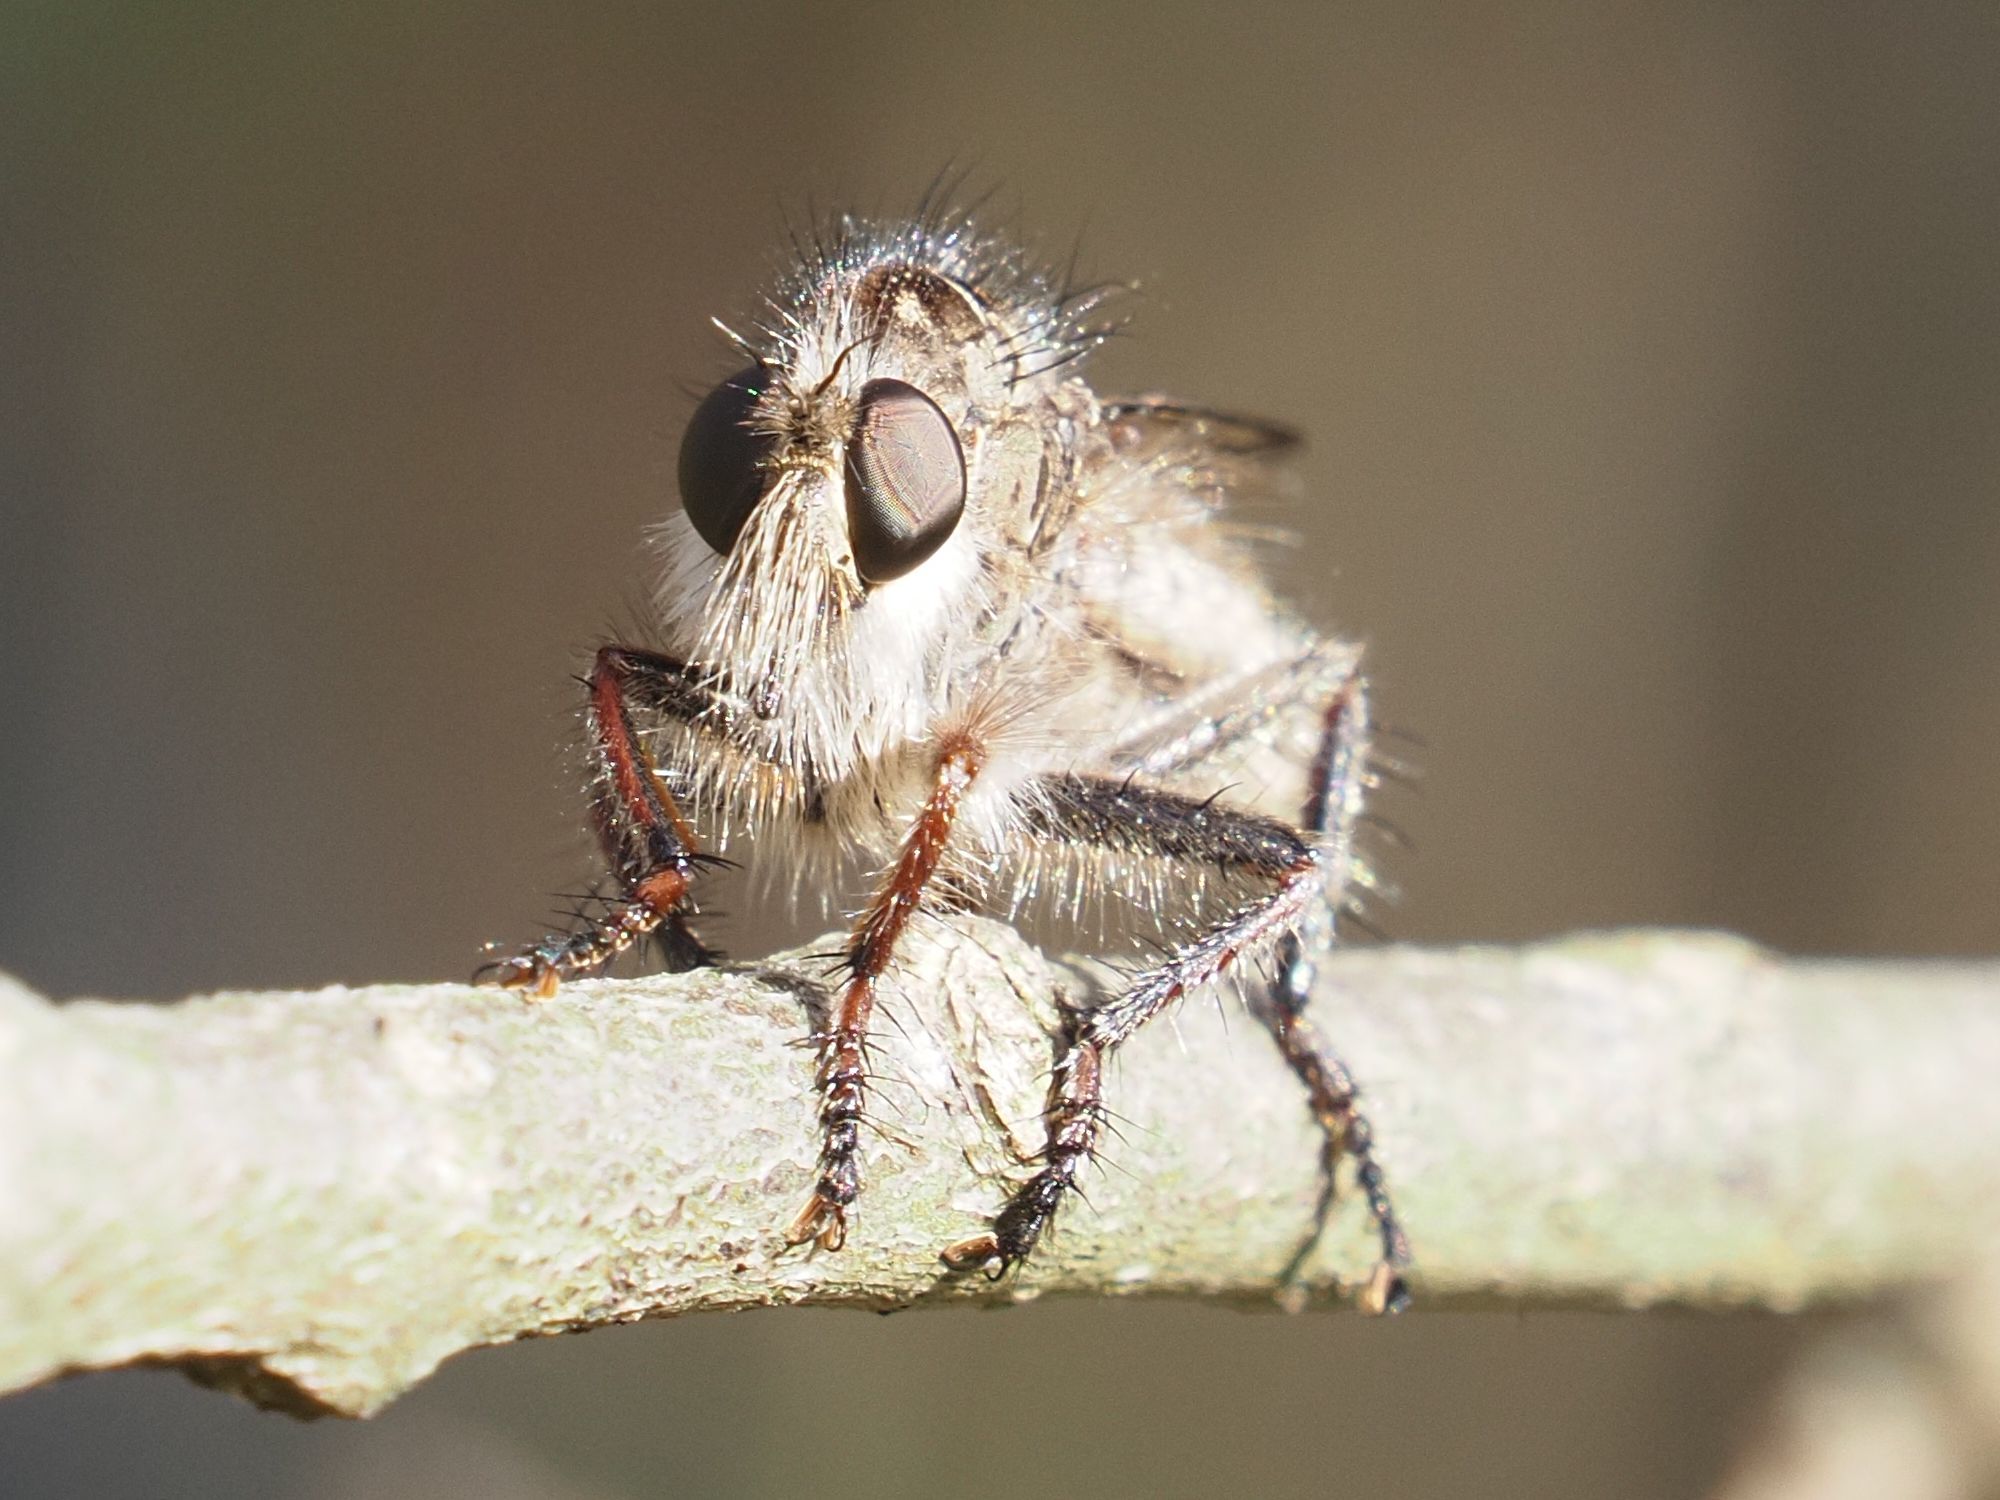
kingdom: Animalia
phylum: Arthropoda
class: Insecta
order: Diptera
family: Asilidae
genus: Erax
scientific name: Erax barbatus
